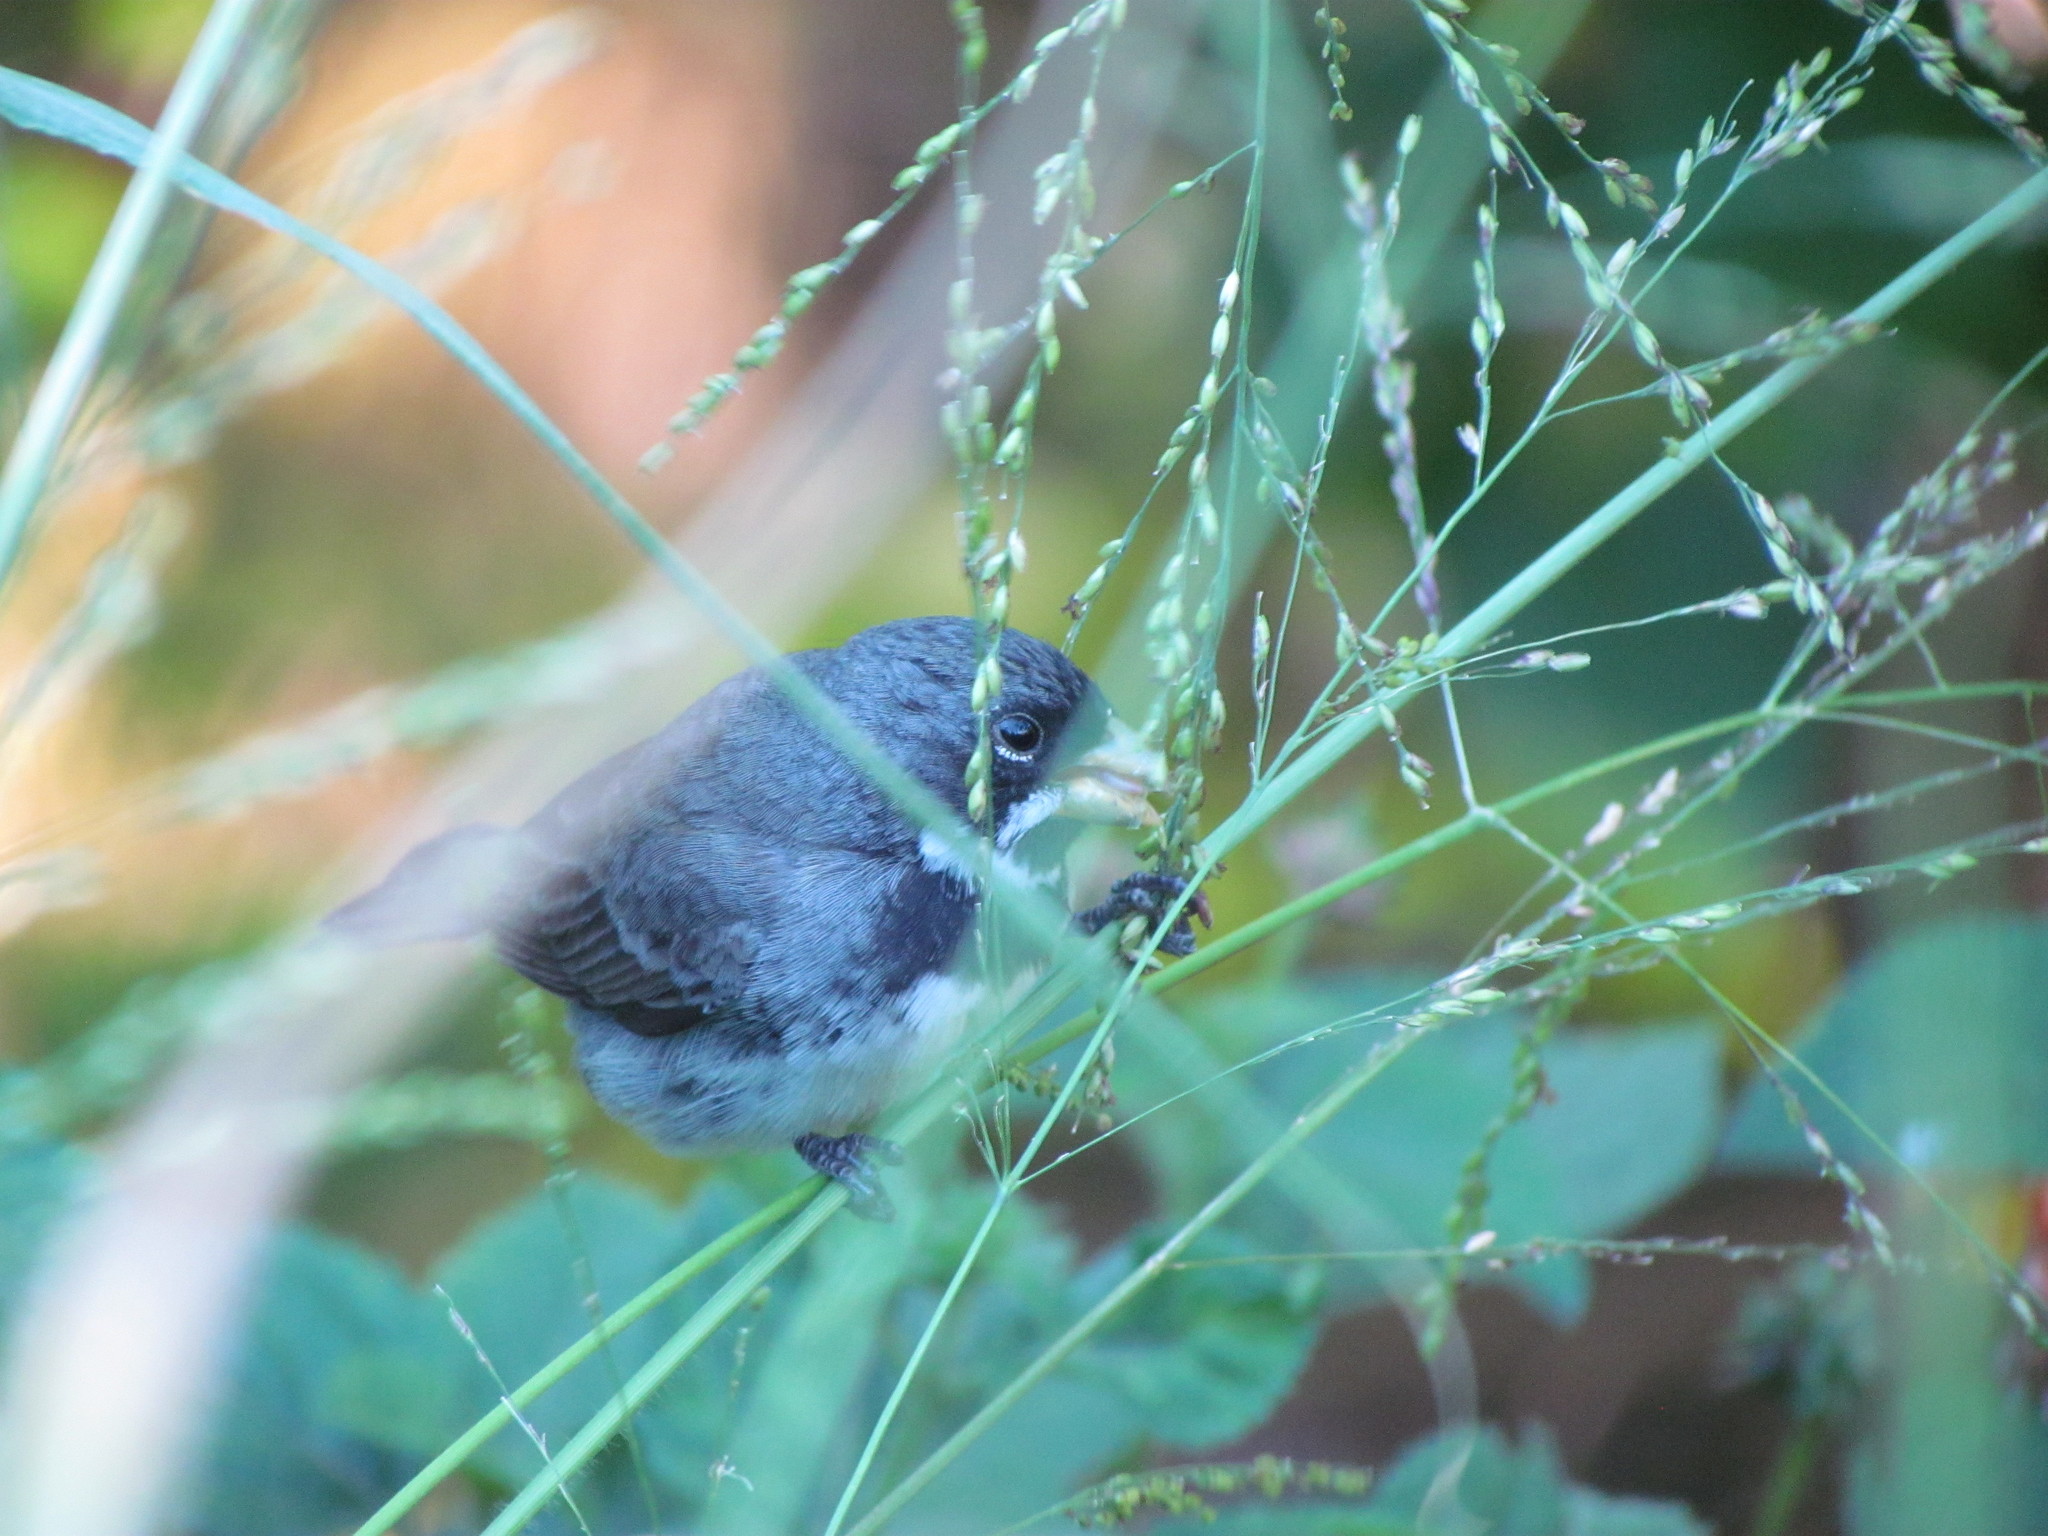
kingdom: Animalia
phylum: Chordata
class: Aves
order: Passeriformes
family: Thraupidae
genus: Sporophila
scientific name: Sporophila caerulescens
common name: Double-collared seedeater
